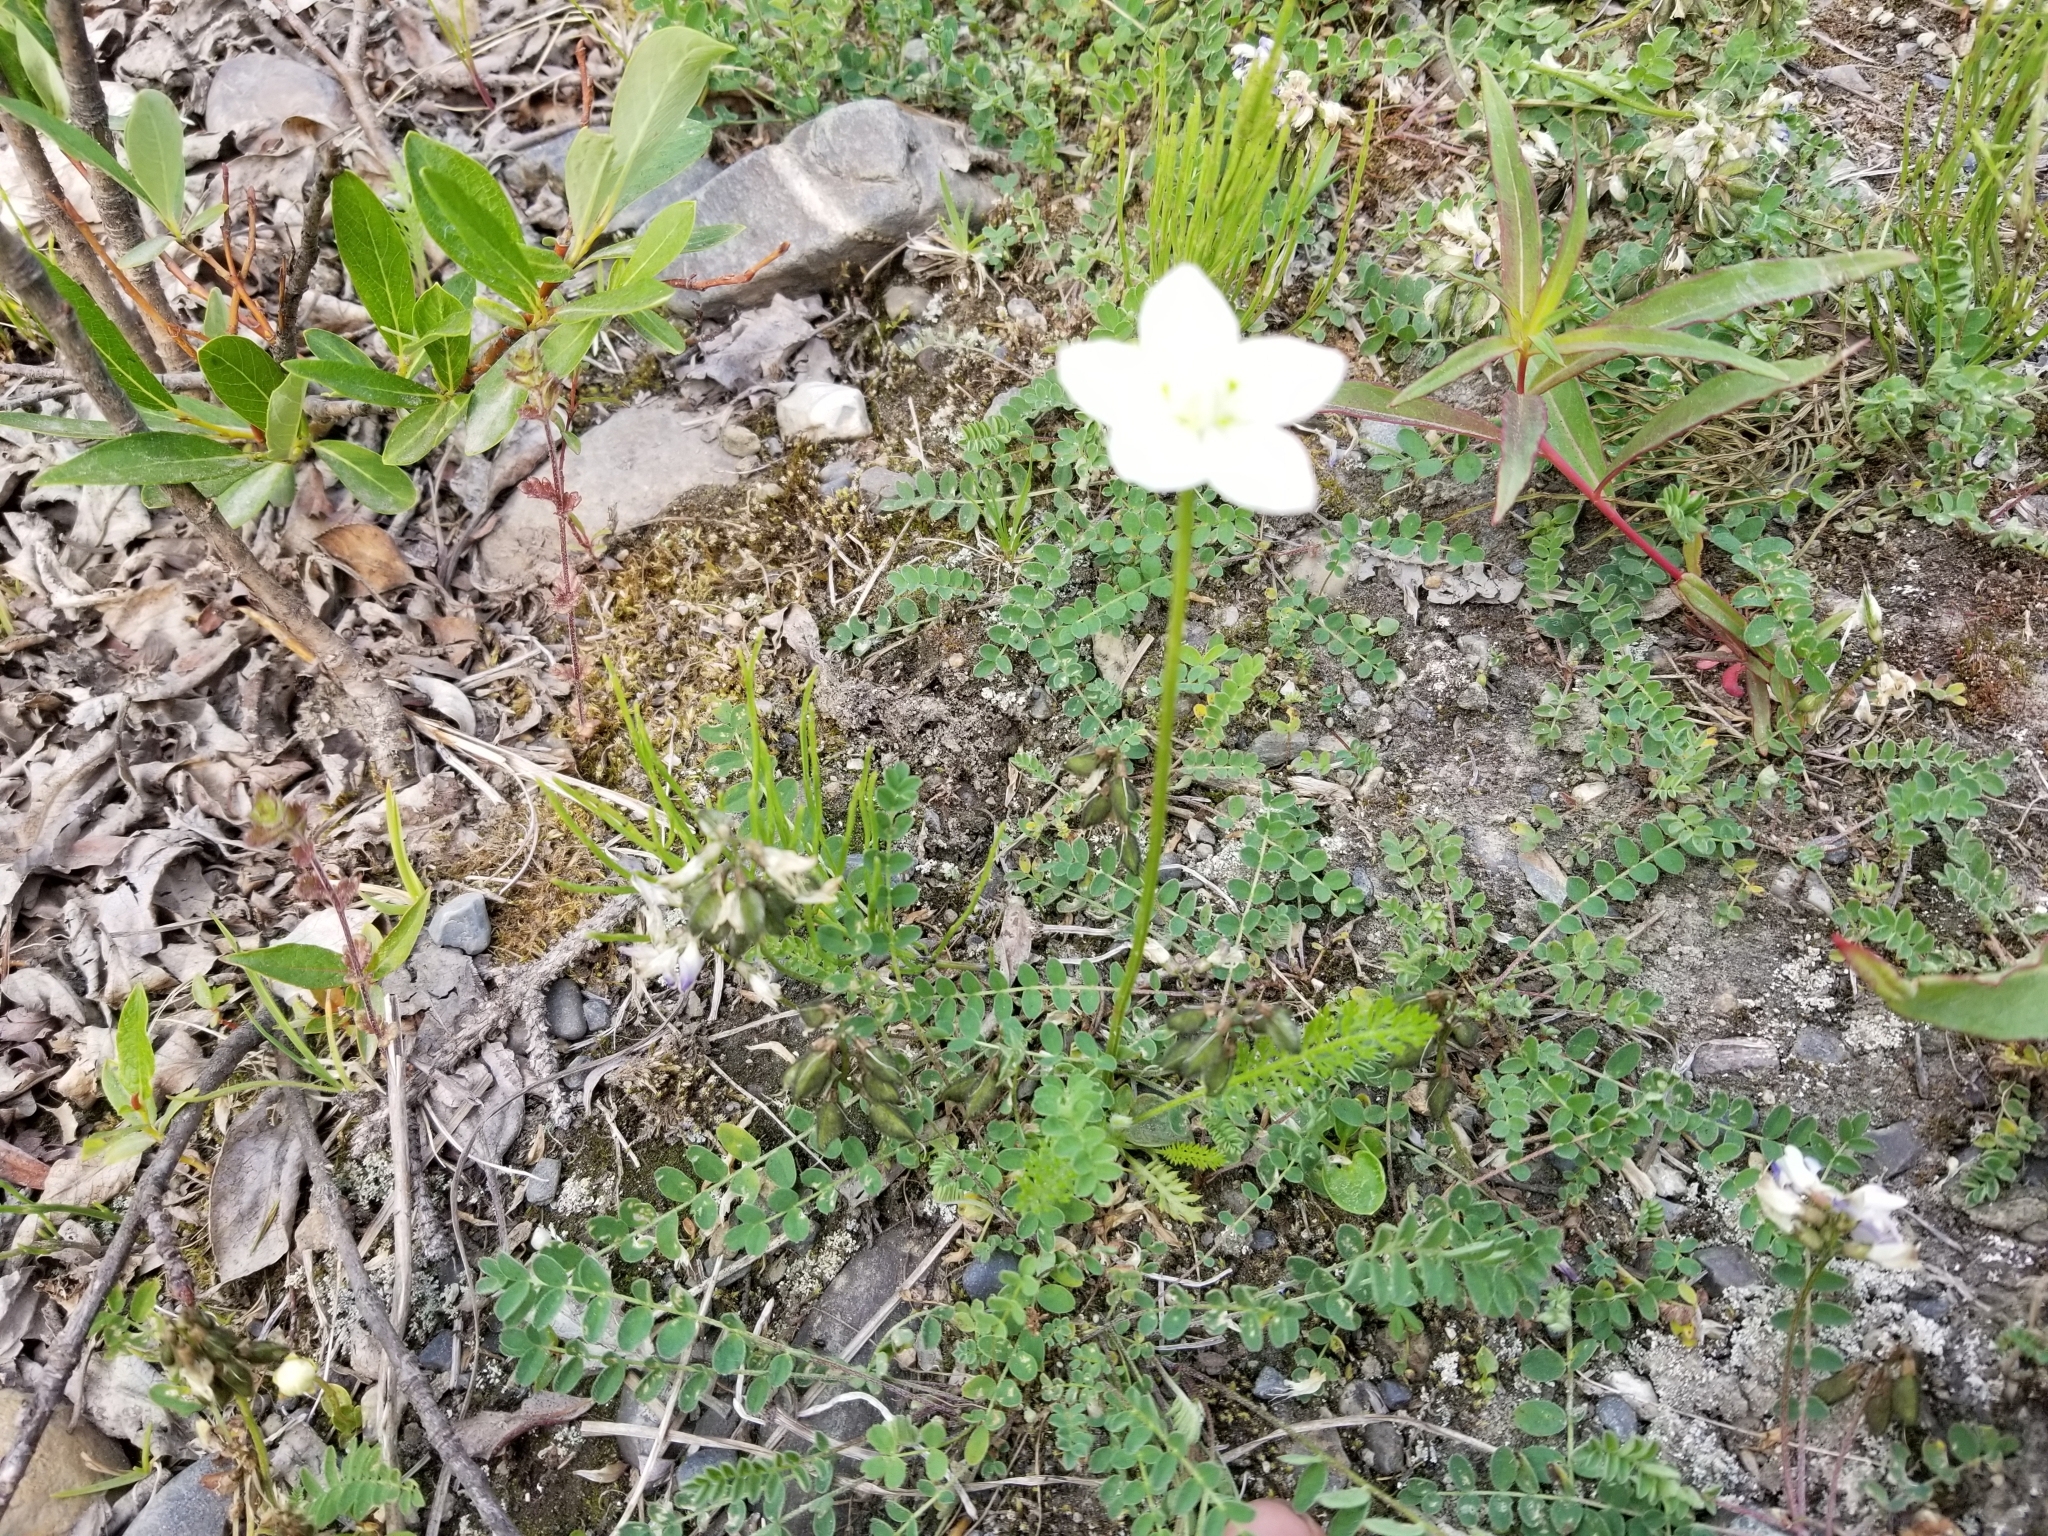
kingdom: Plantae
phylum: Tracheophyta
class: Magnoliopsida
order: Celastrales
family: Parnassiaceae
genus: Parnassia
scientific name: Parnassia palustris
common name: Grass-of-parnassus
